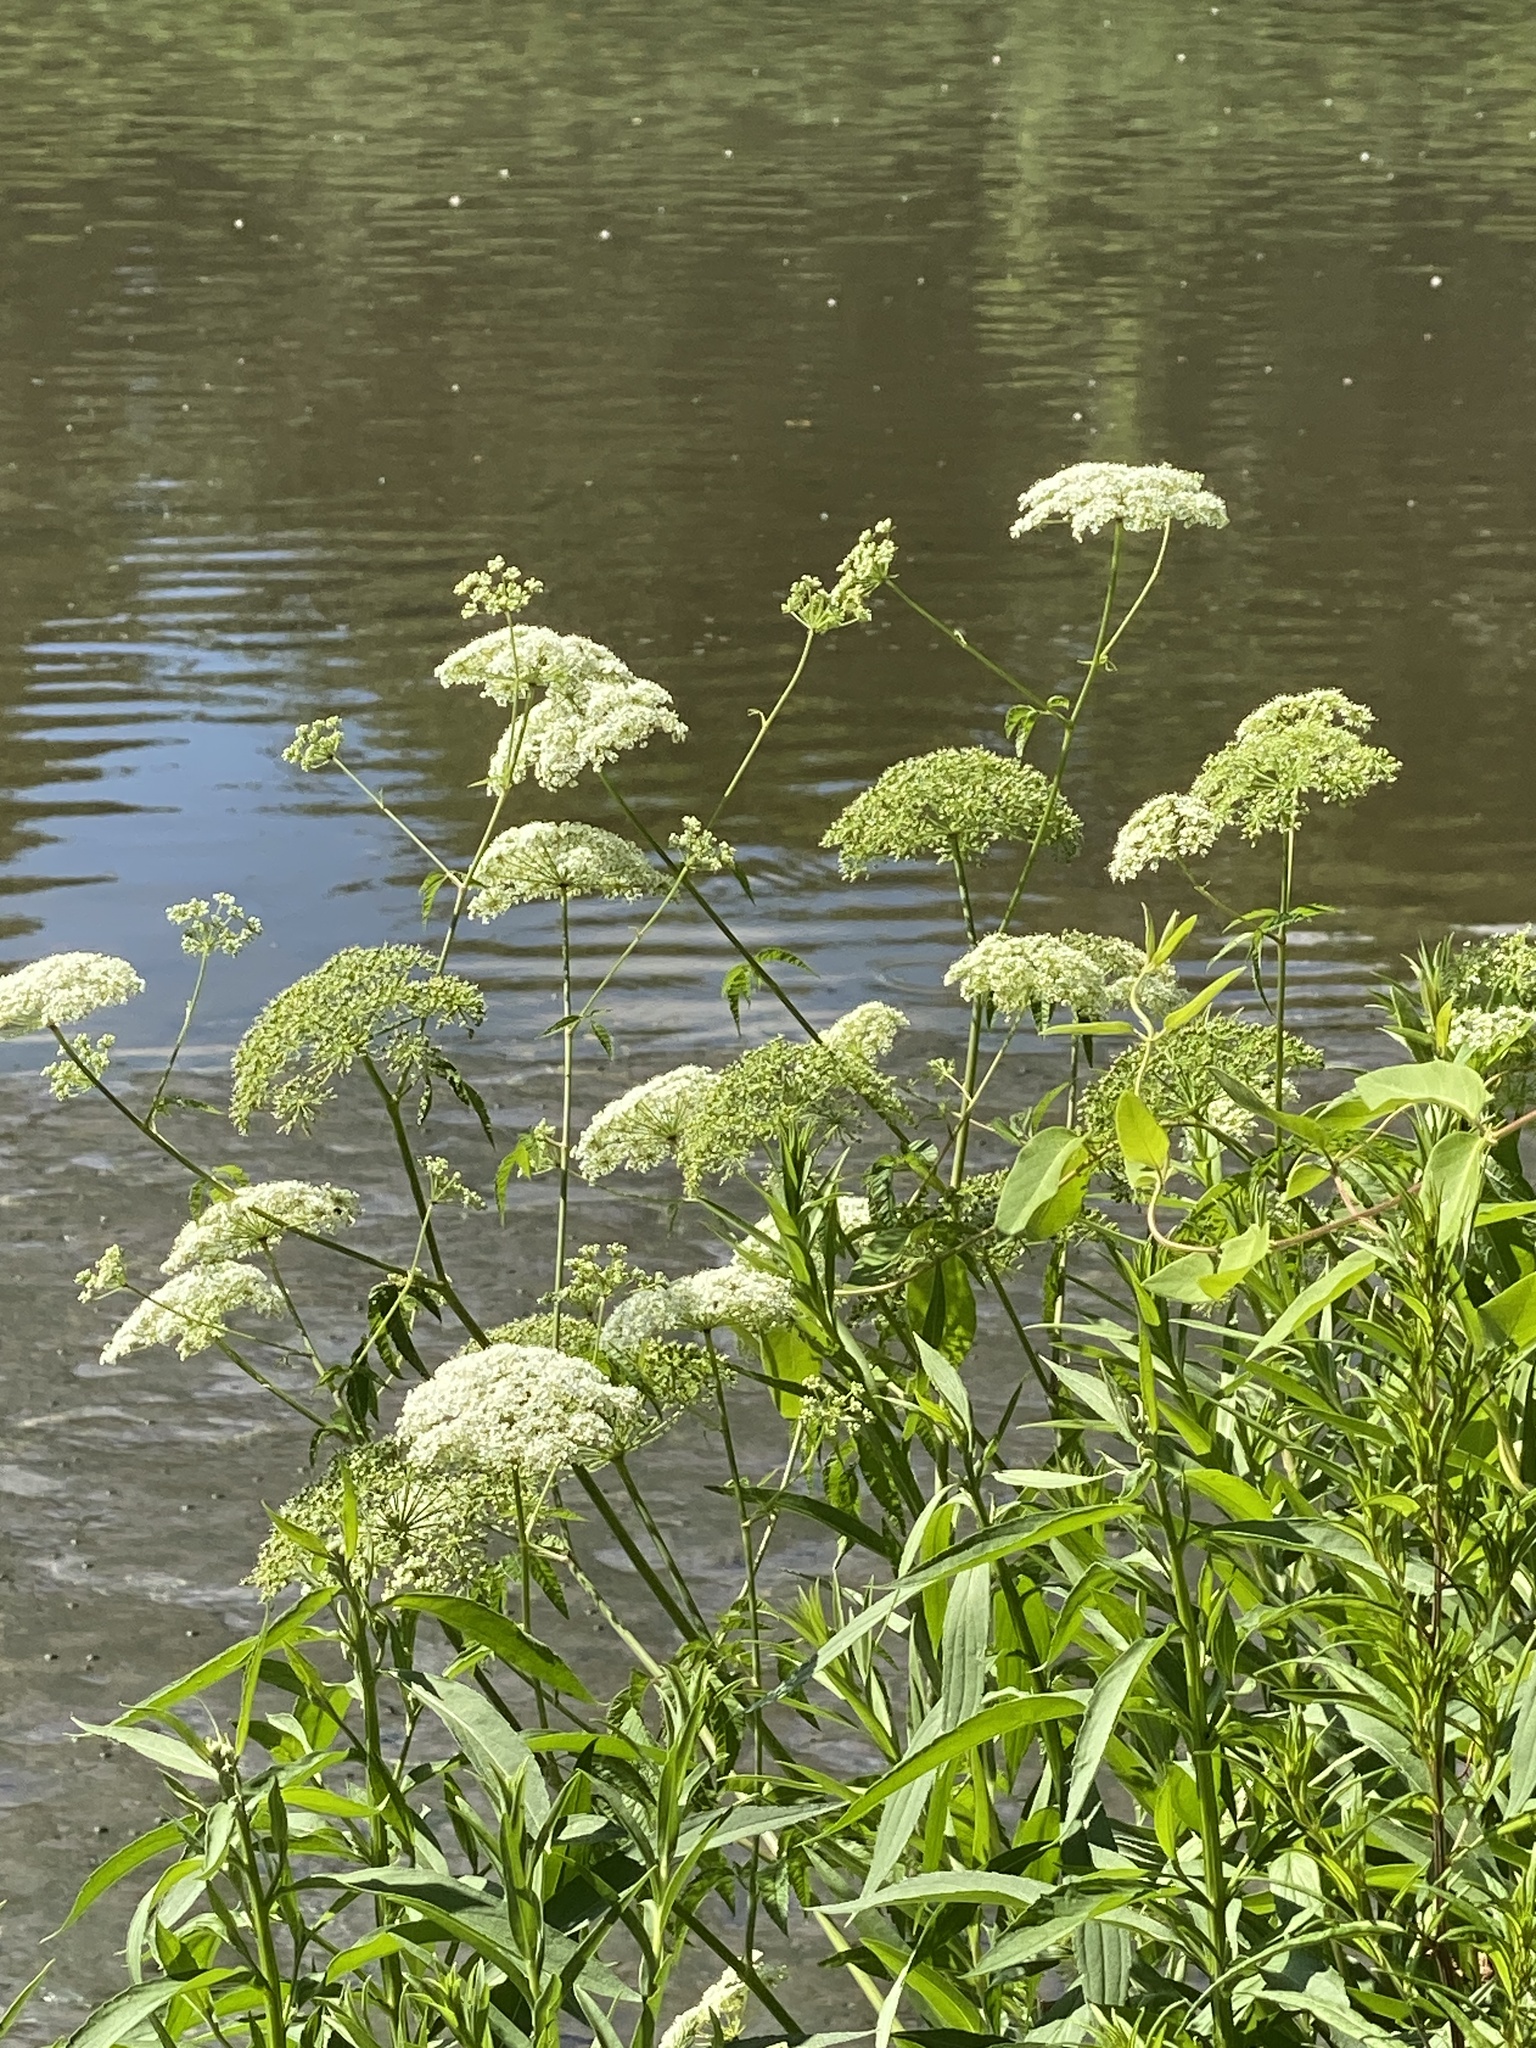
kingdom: Plantae
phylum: Tracheophyta
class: Magnoliopsida
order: Apiales
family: Apiaceae
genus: Cicuta
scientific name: Cicuta maculata
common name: Spotted cowbane
